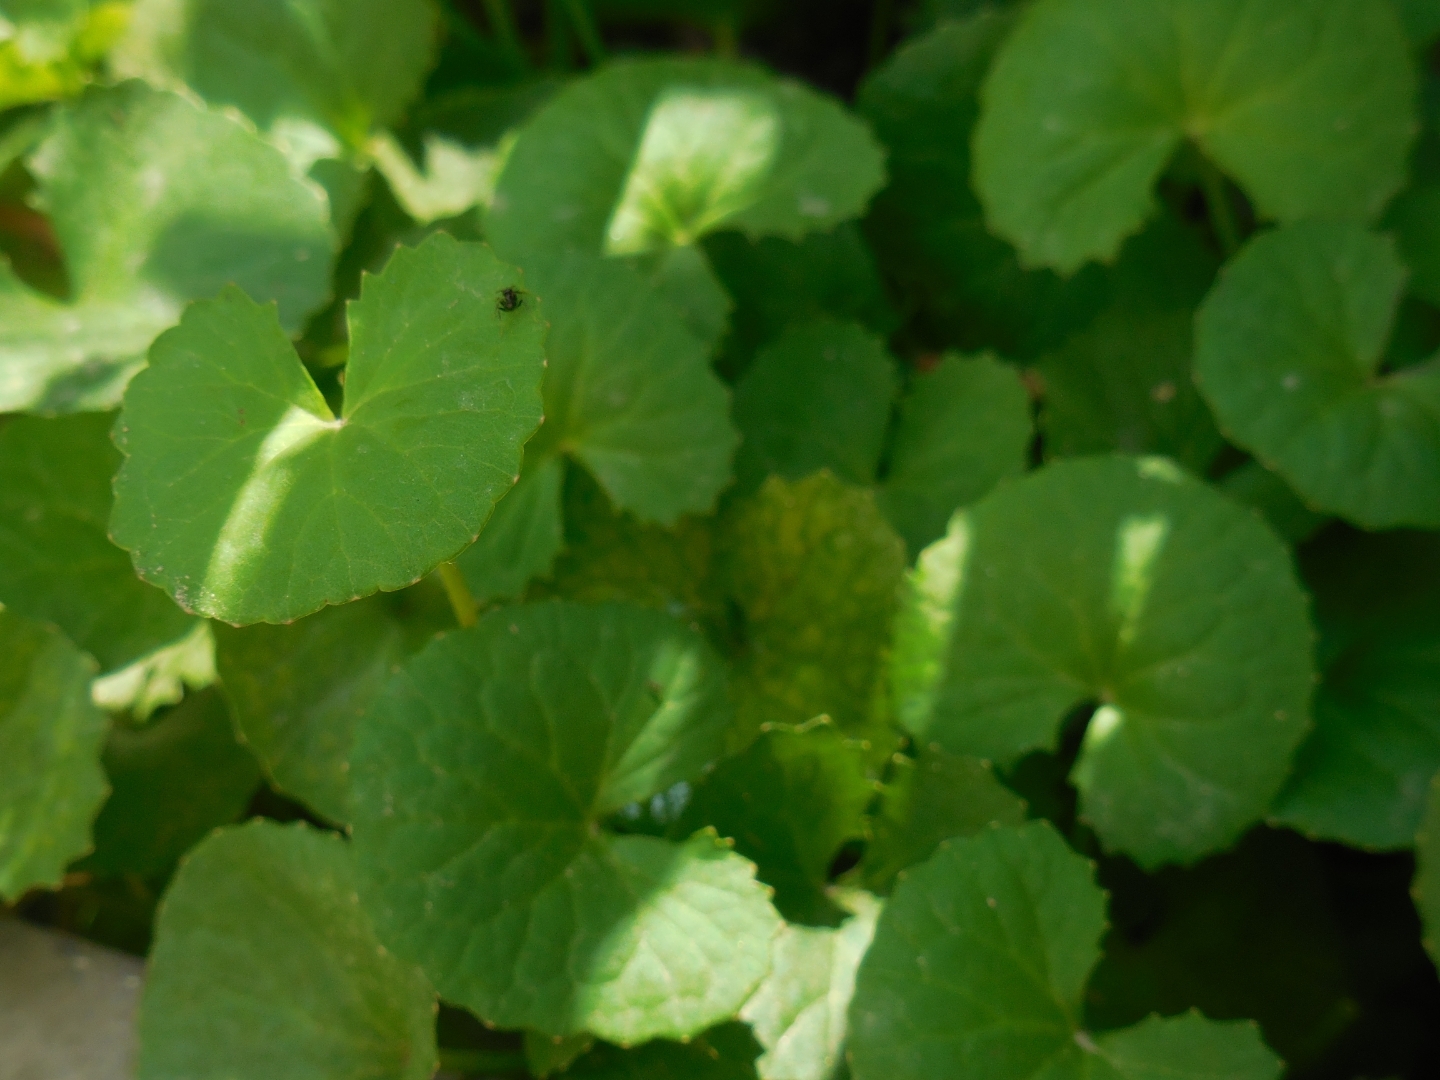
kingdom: Plantae
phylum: Tracheophyta
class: Magnoliopsida
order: Apiales
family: Apiaceae
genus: Centella
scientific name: Centella asiatica
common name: Spadeleaf
